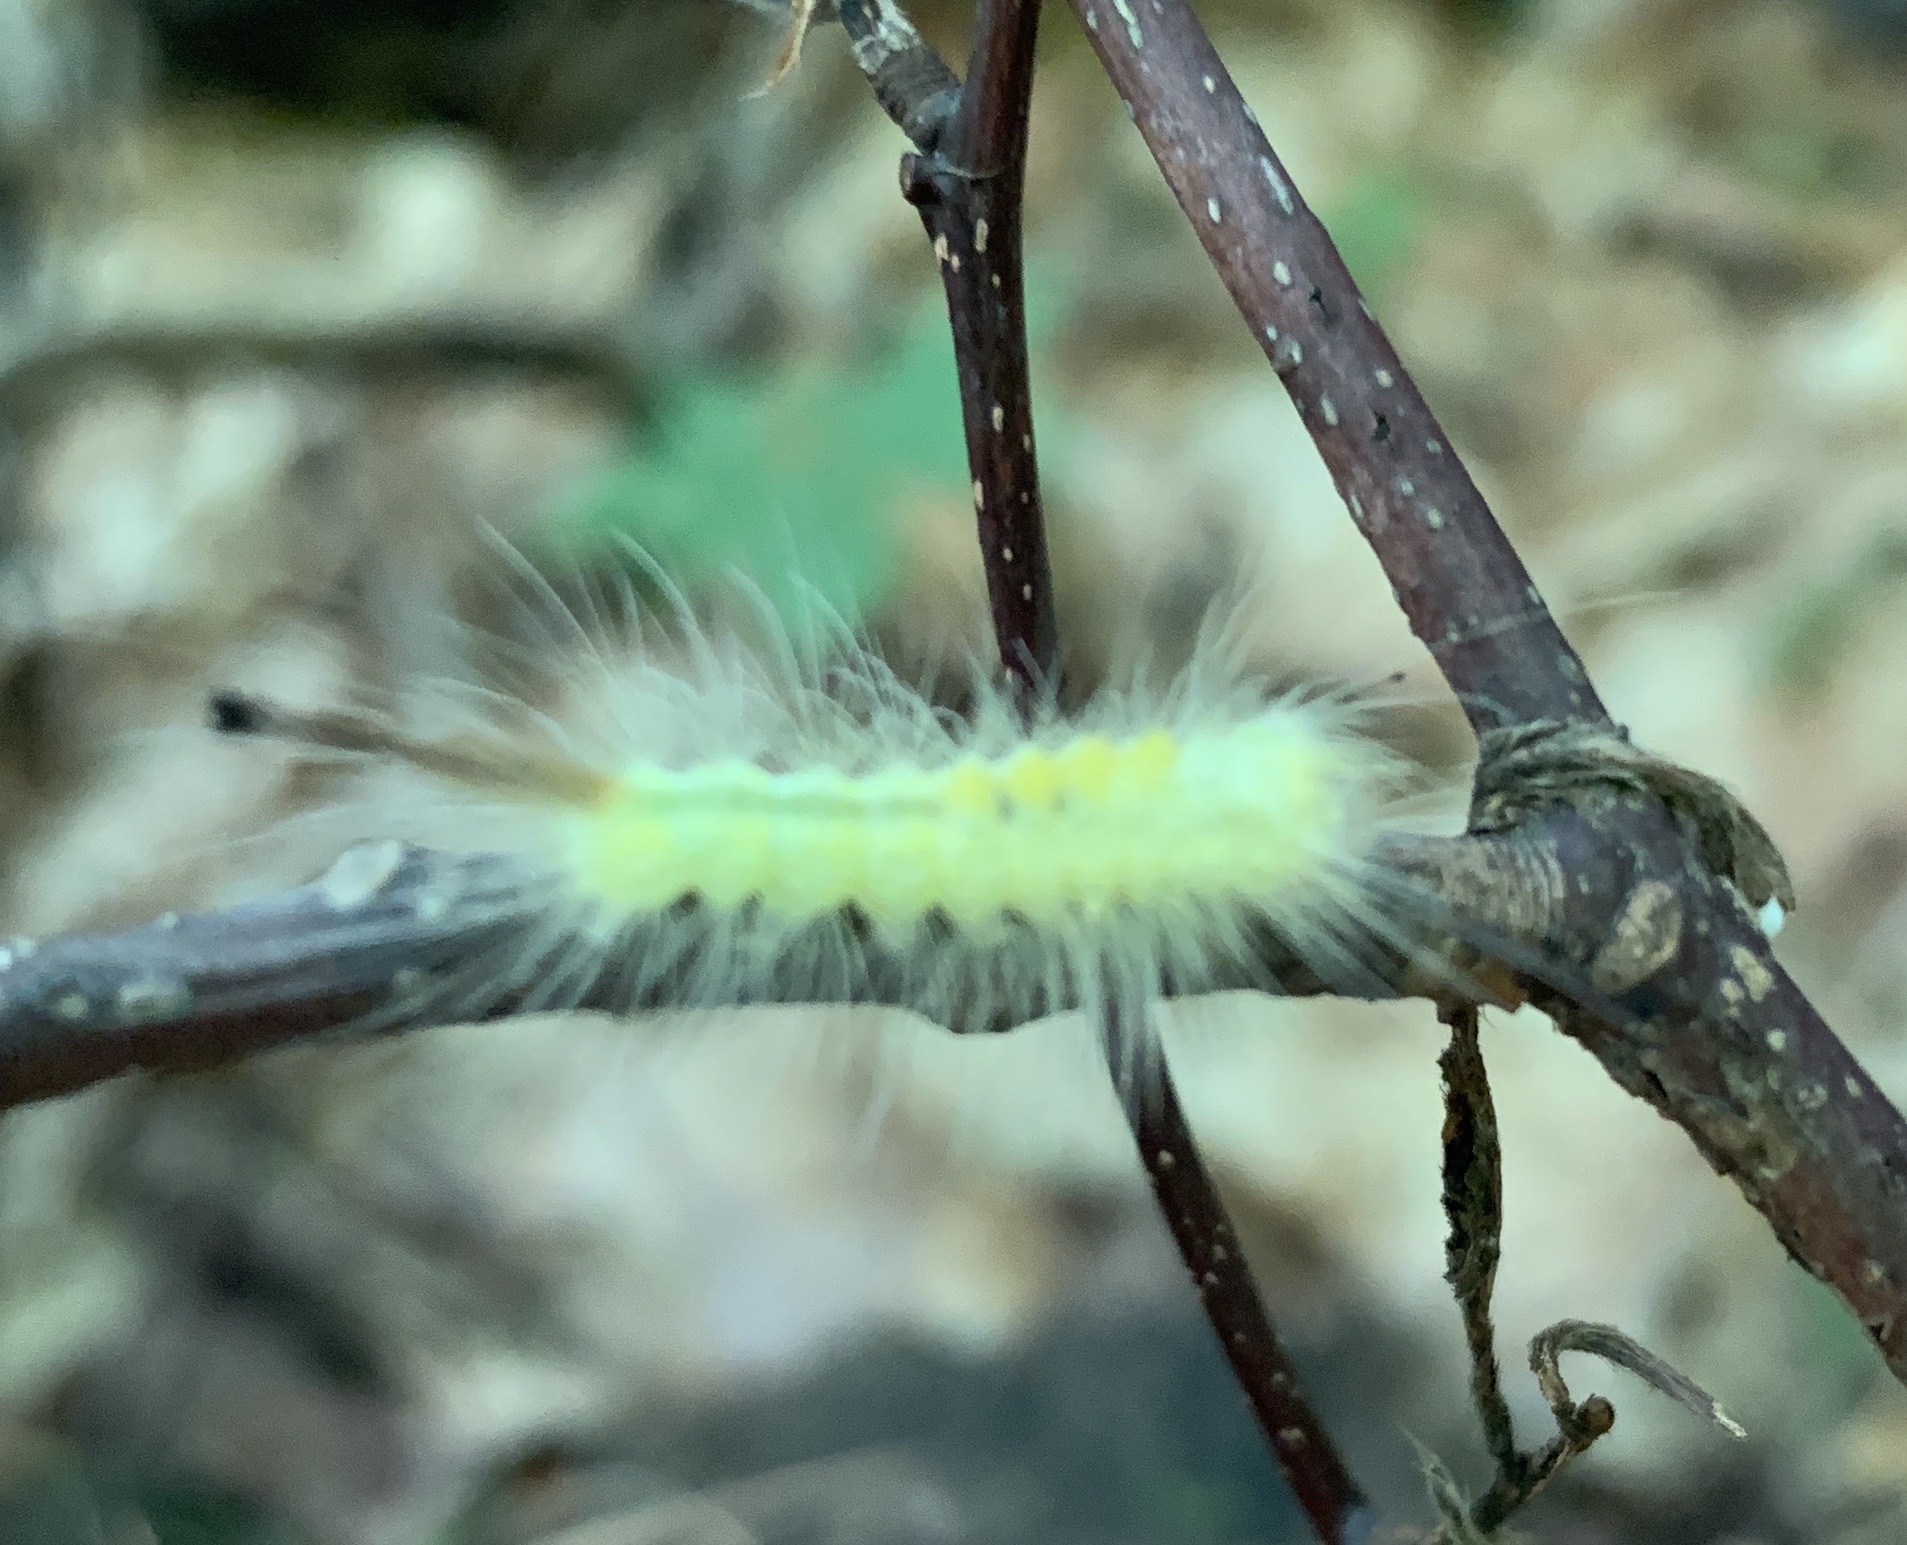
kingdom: Animalia
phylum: Arthropoda
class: Insecta
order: Lepidoptera
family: Erebidae
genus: Orgyia
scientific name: Orgyia definita
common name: Definite tussock moth
